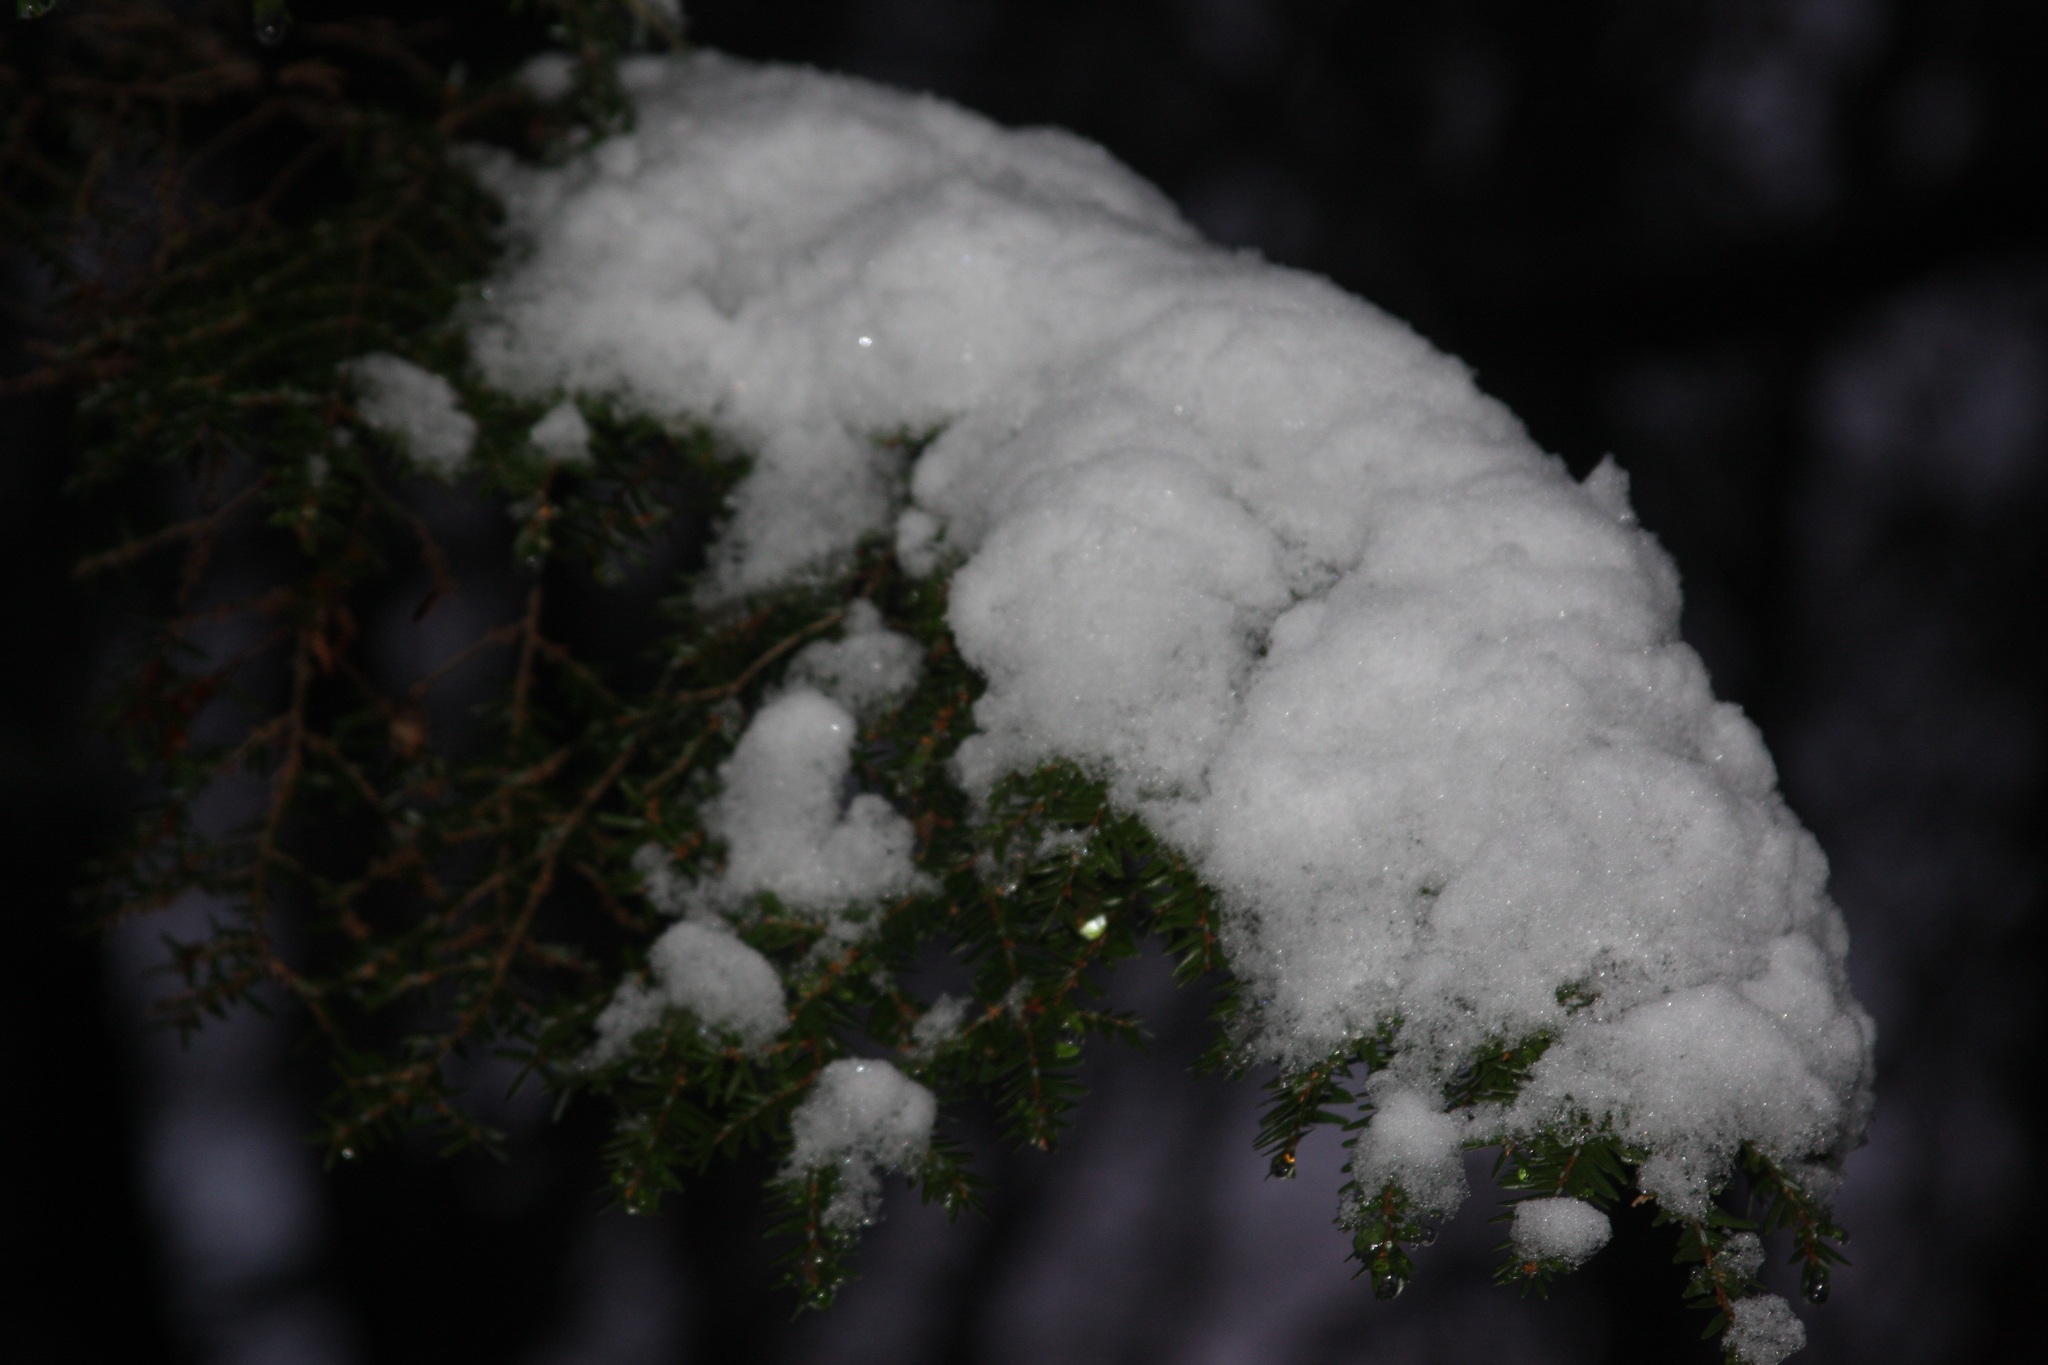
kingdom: Plantae
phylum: Tracheophyta
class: Pinopsida
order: Pinales
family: Pinaceae
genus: Tsuga
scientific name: Tsuga canadensis
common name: Eastern hemlock
